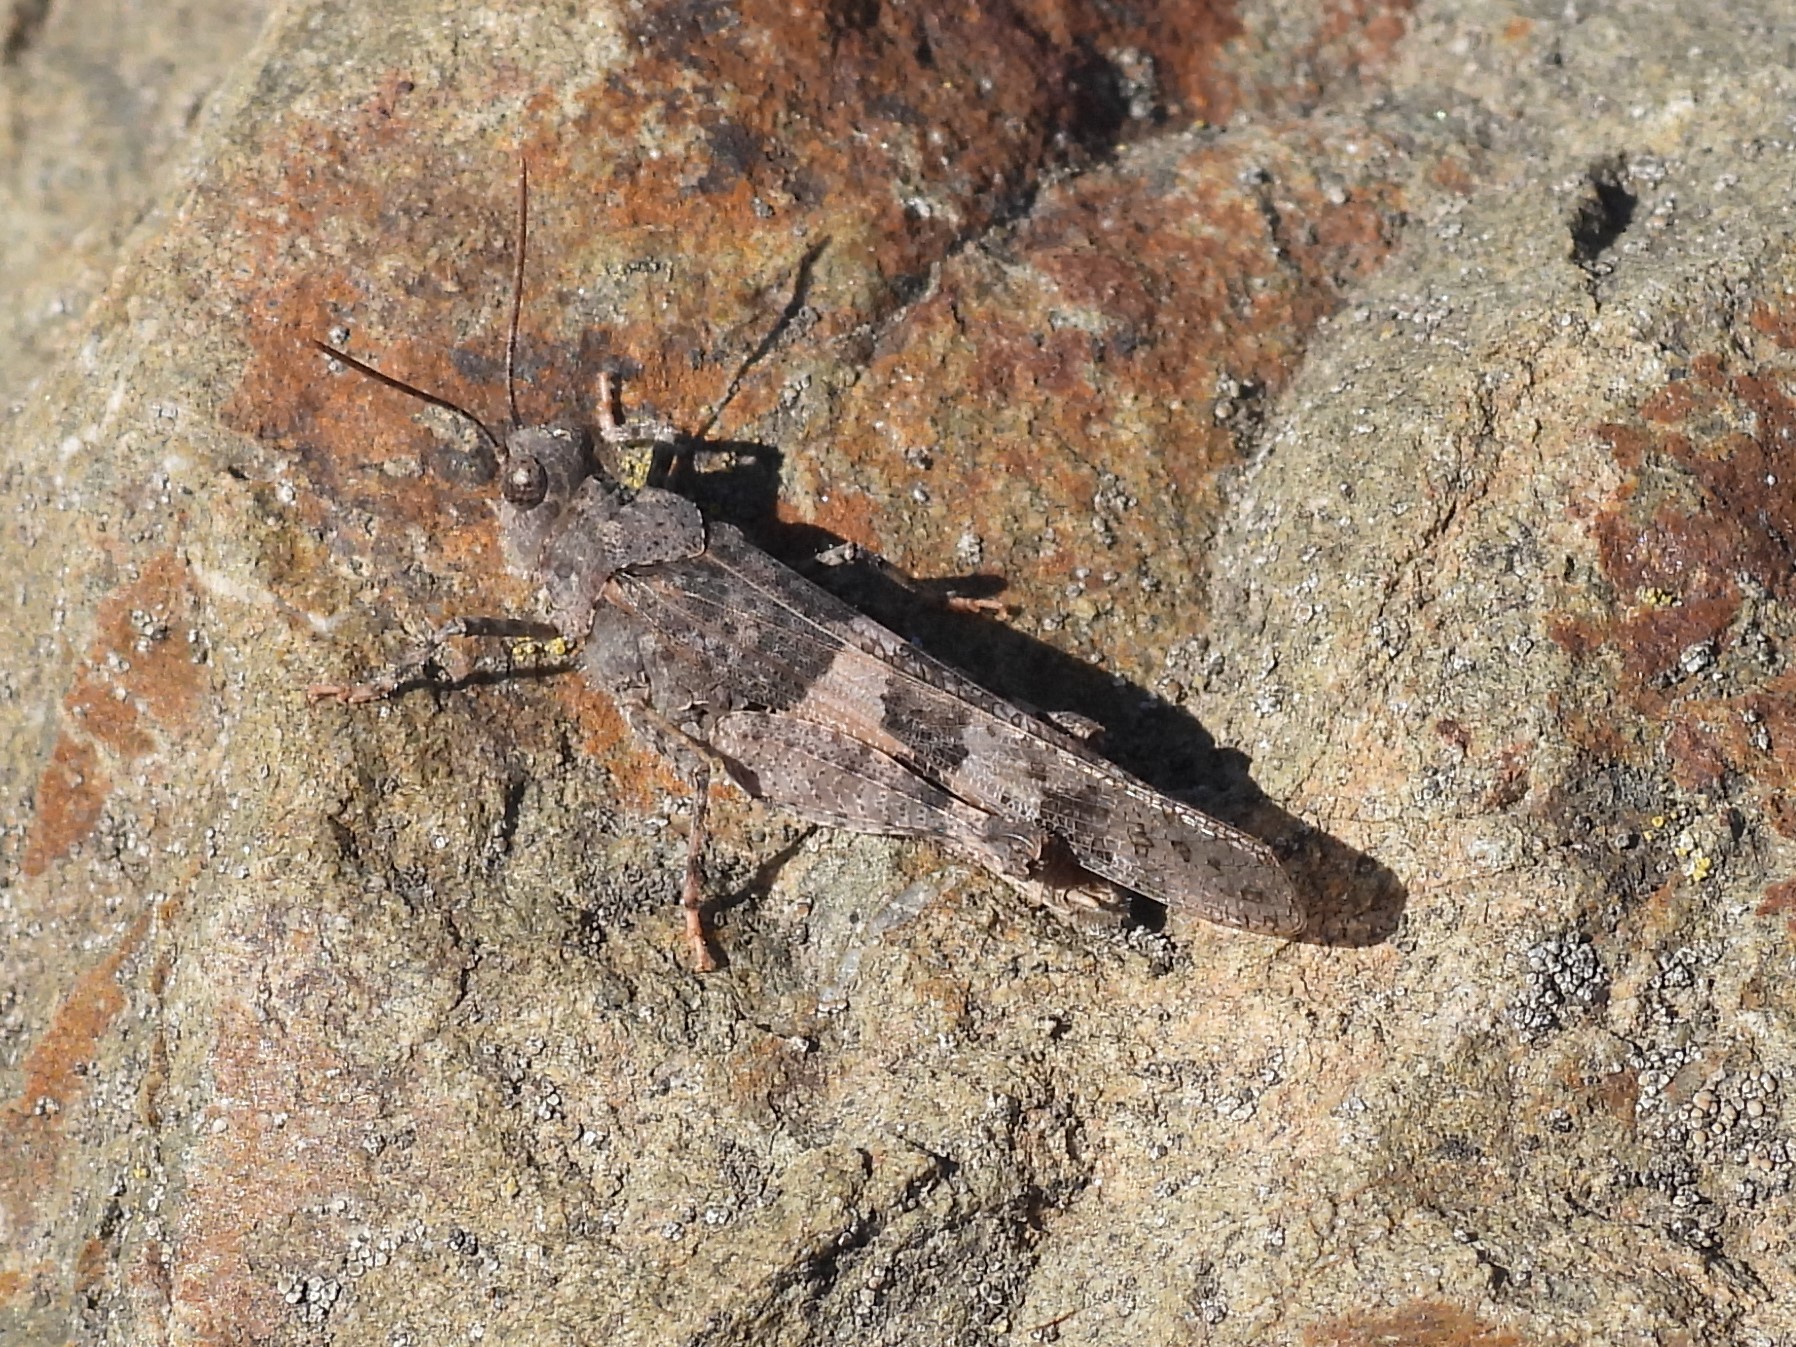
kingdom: Animalia
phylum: Arthropoda
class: Insecta
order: Orthoptera
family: Acrididae
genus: Trimerotropis
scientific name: Trimerotropis pallidipennis
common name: Pallid-winged grasshopper
